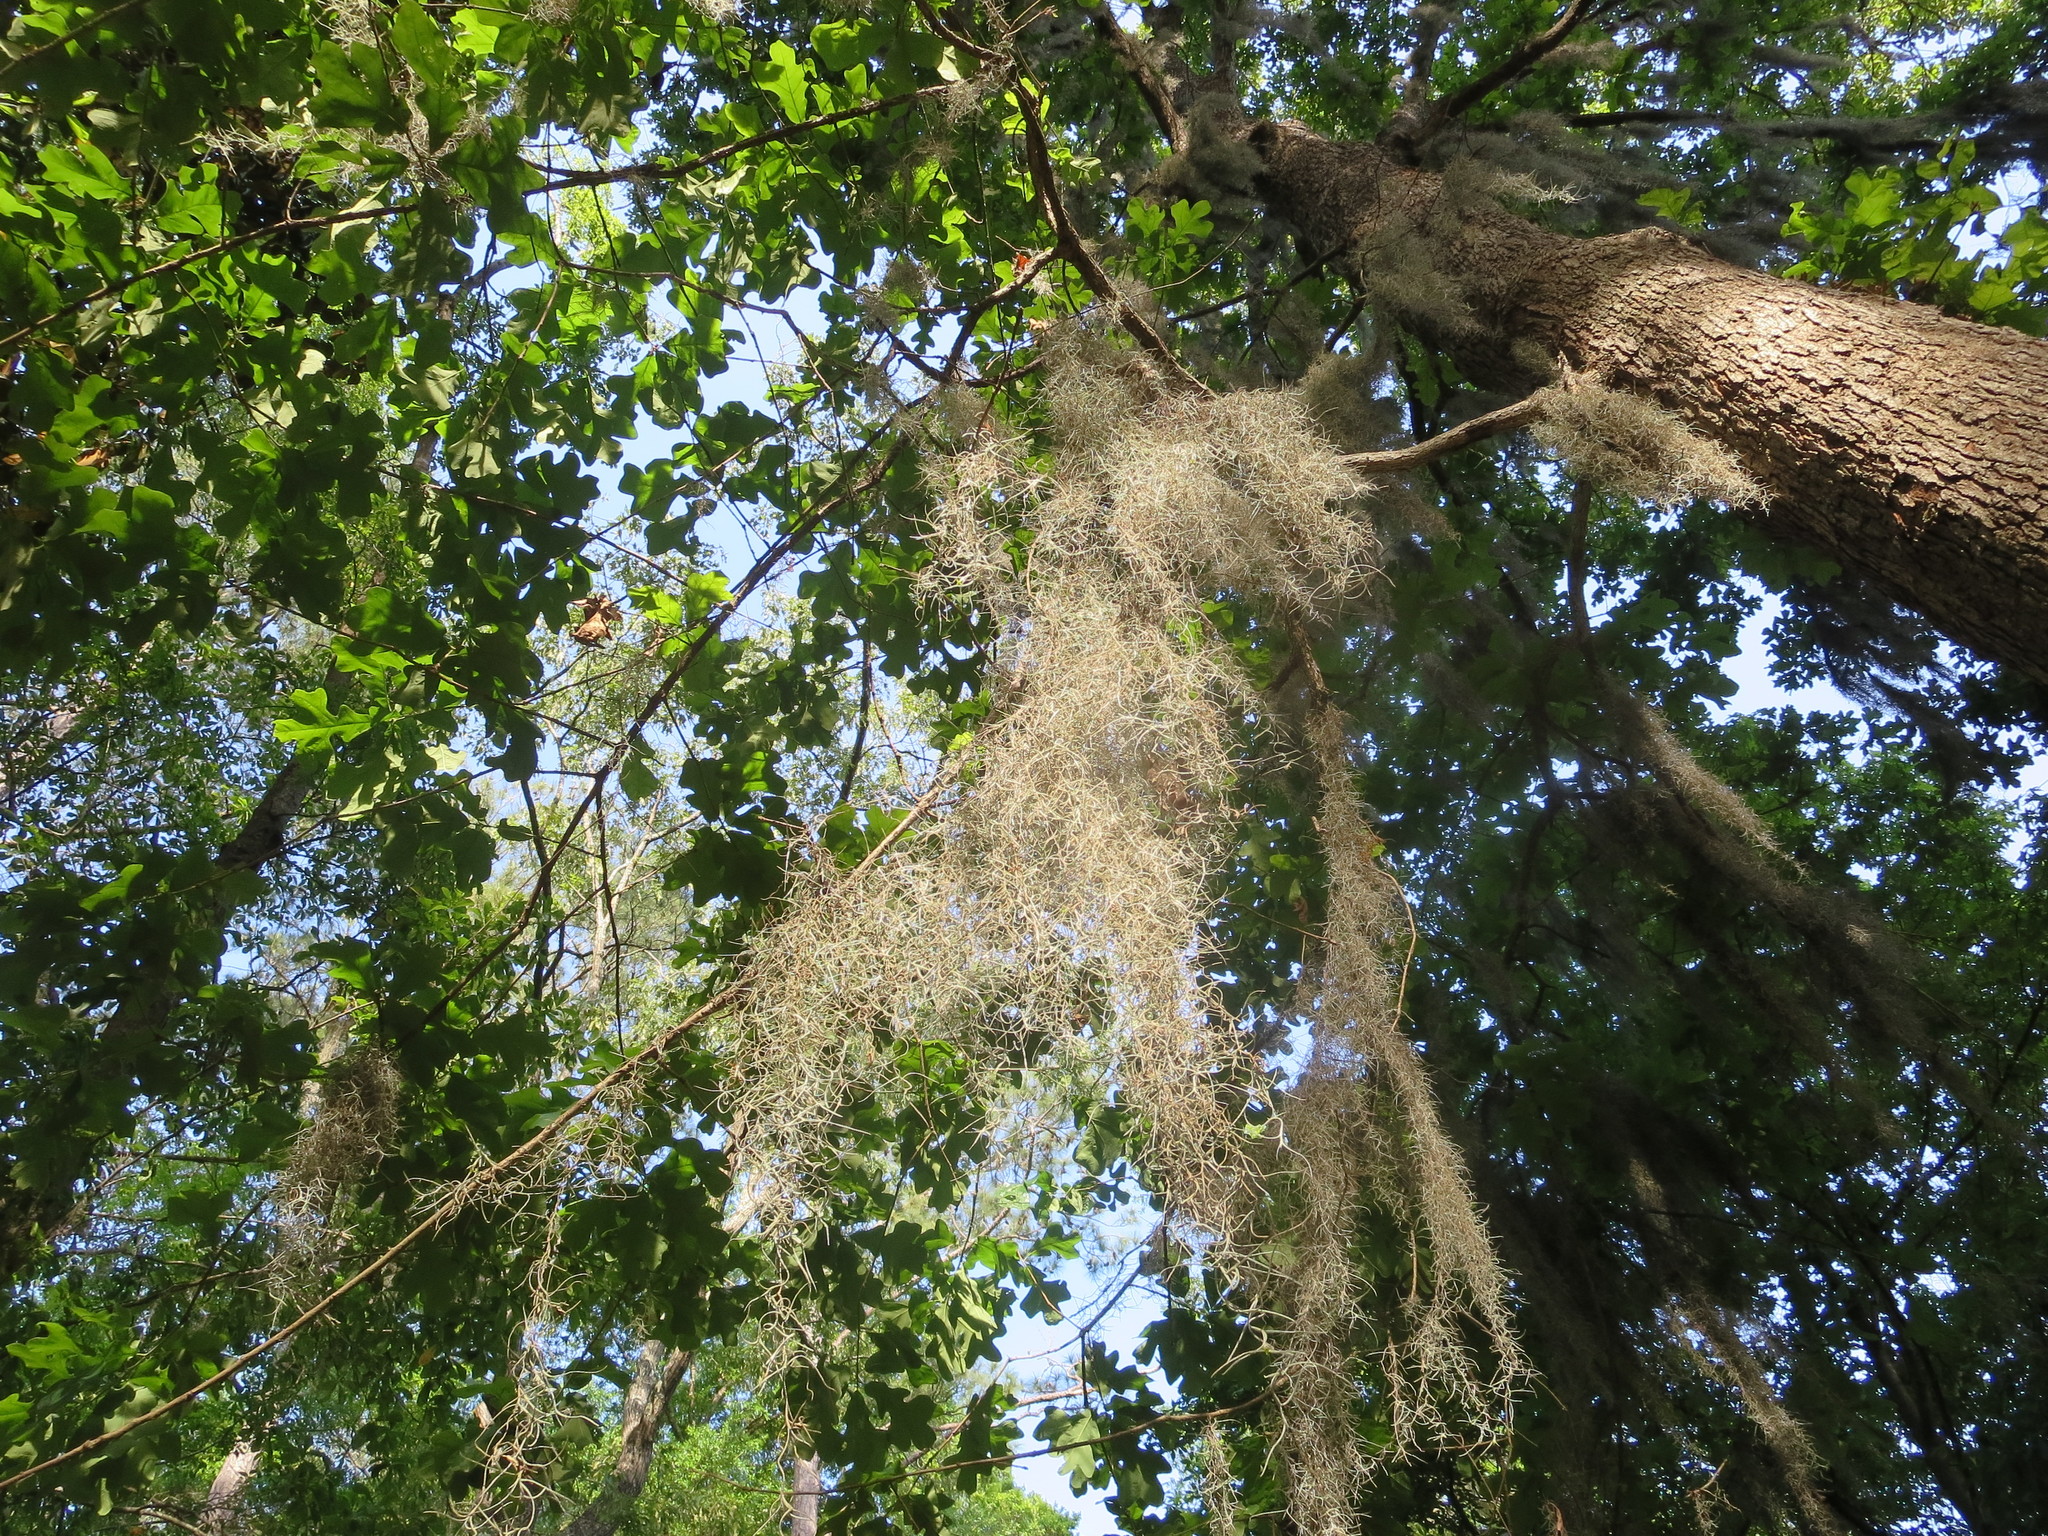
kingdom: Plantae
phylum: Tracheophyta
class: Liliopsida
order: Poales
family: Bromeliaceae
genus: Tillandsia
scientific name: Tillandsia usneoides
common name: Spanish moss
